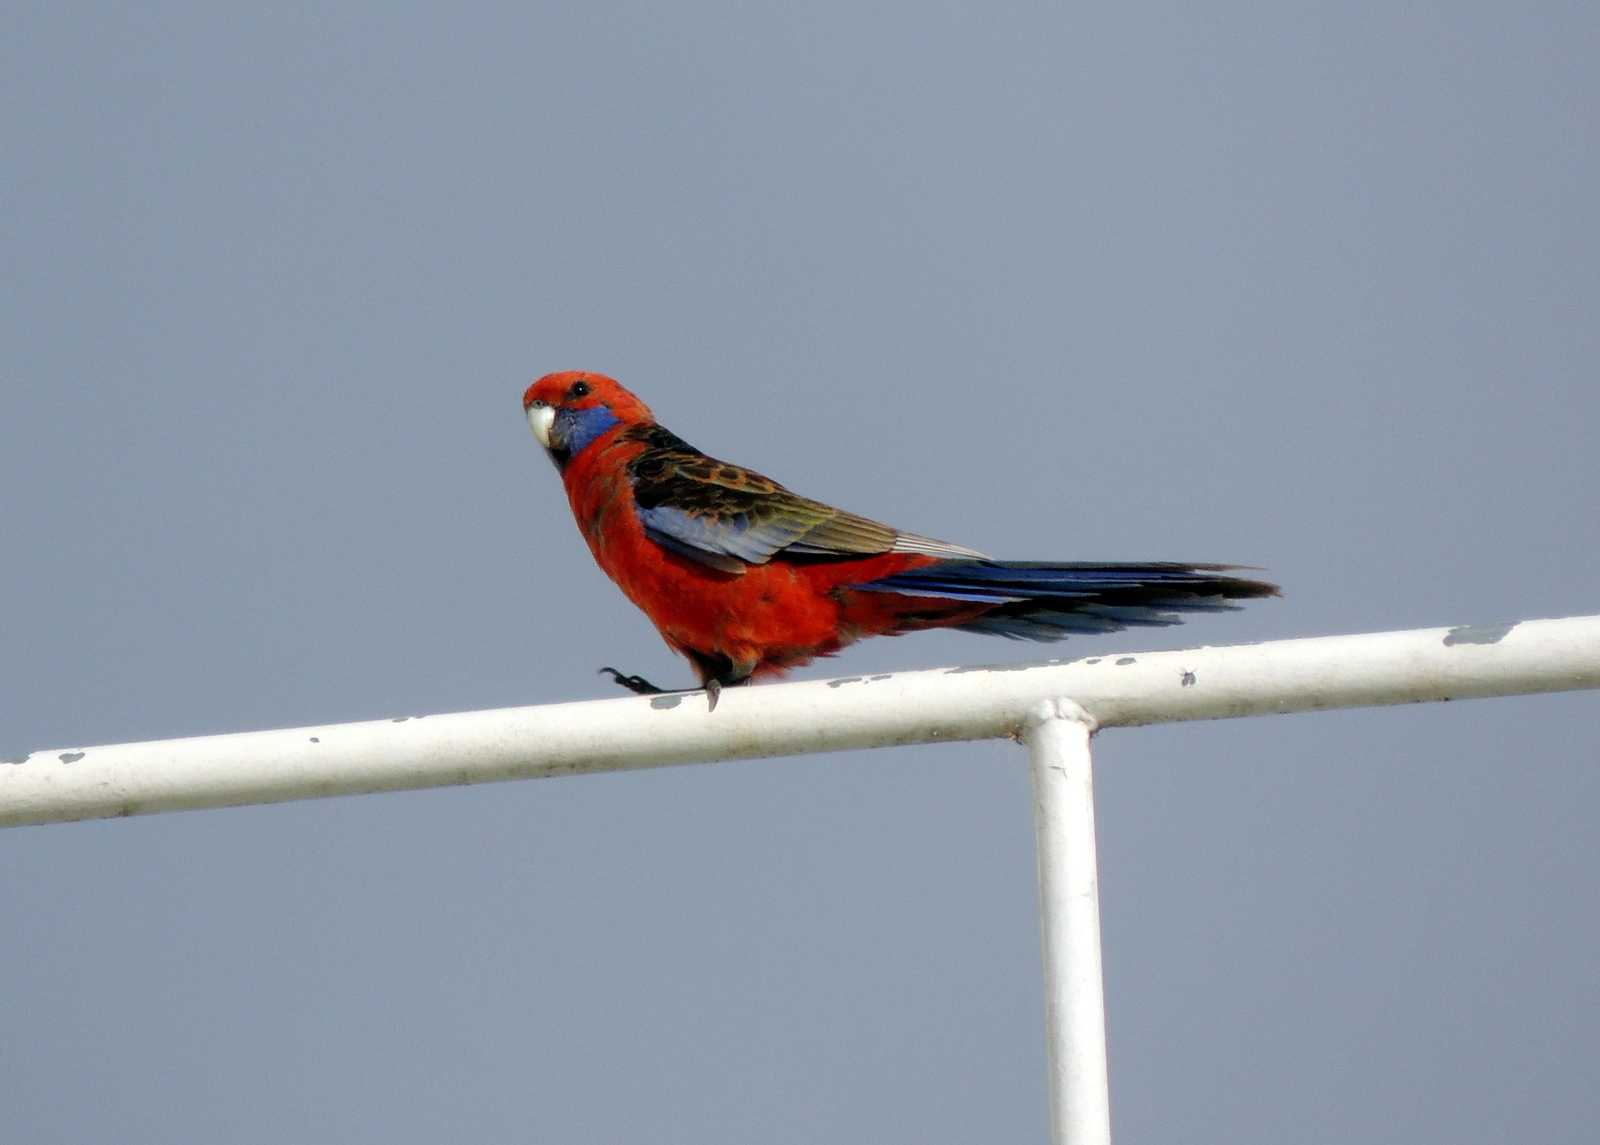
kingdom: Animalia
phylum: Chordata
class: Aves
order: Psittaciformes
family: Psittacidae
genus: Platycercus
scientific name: Platycercus elegans
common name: Crimson rosella
